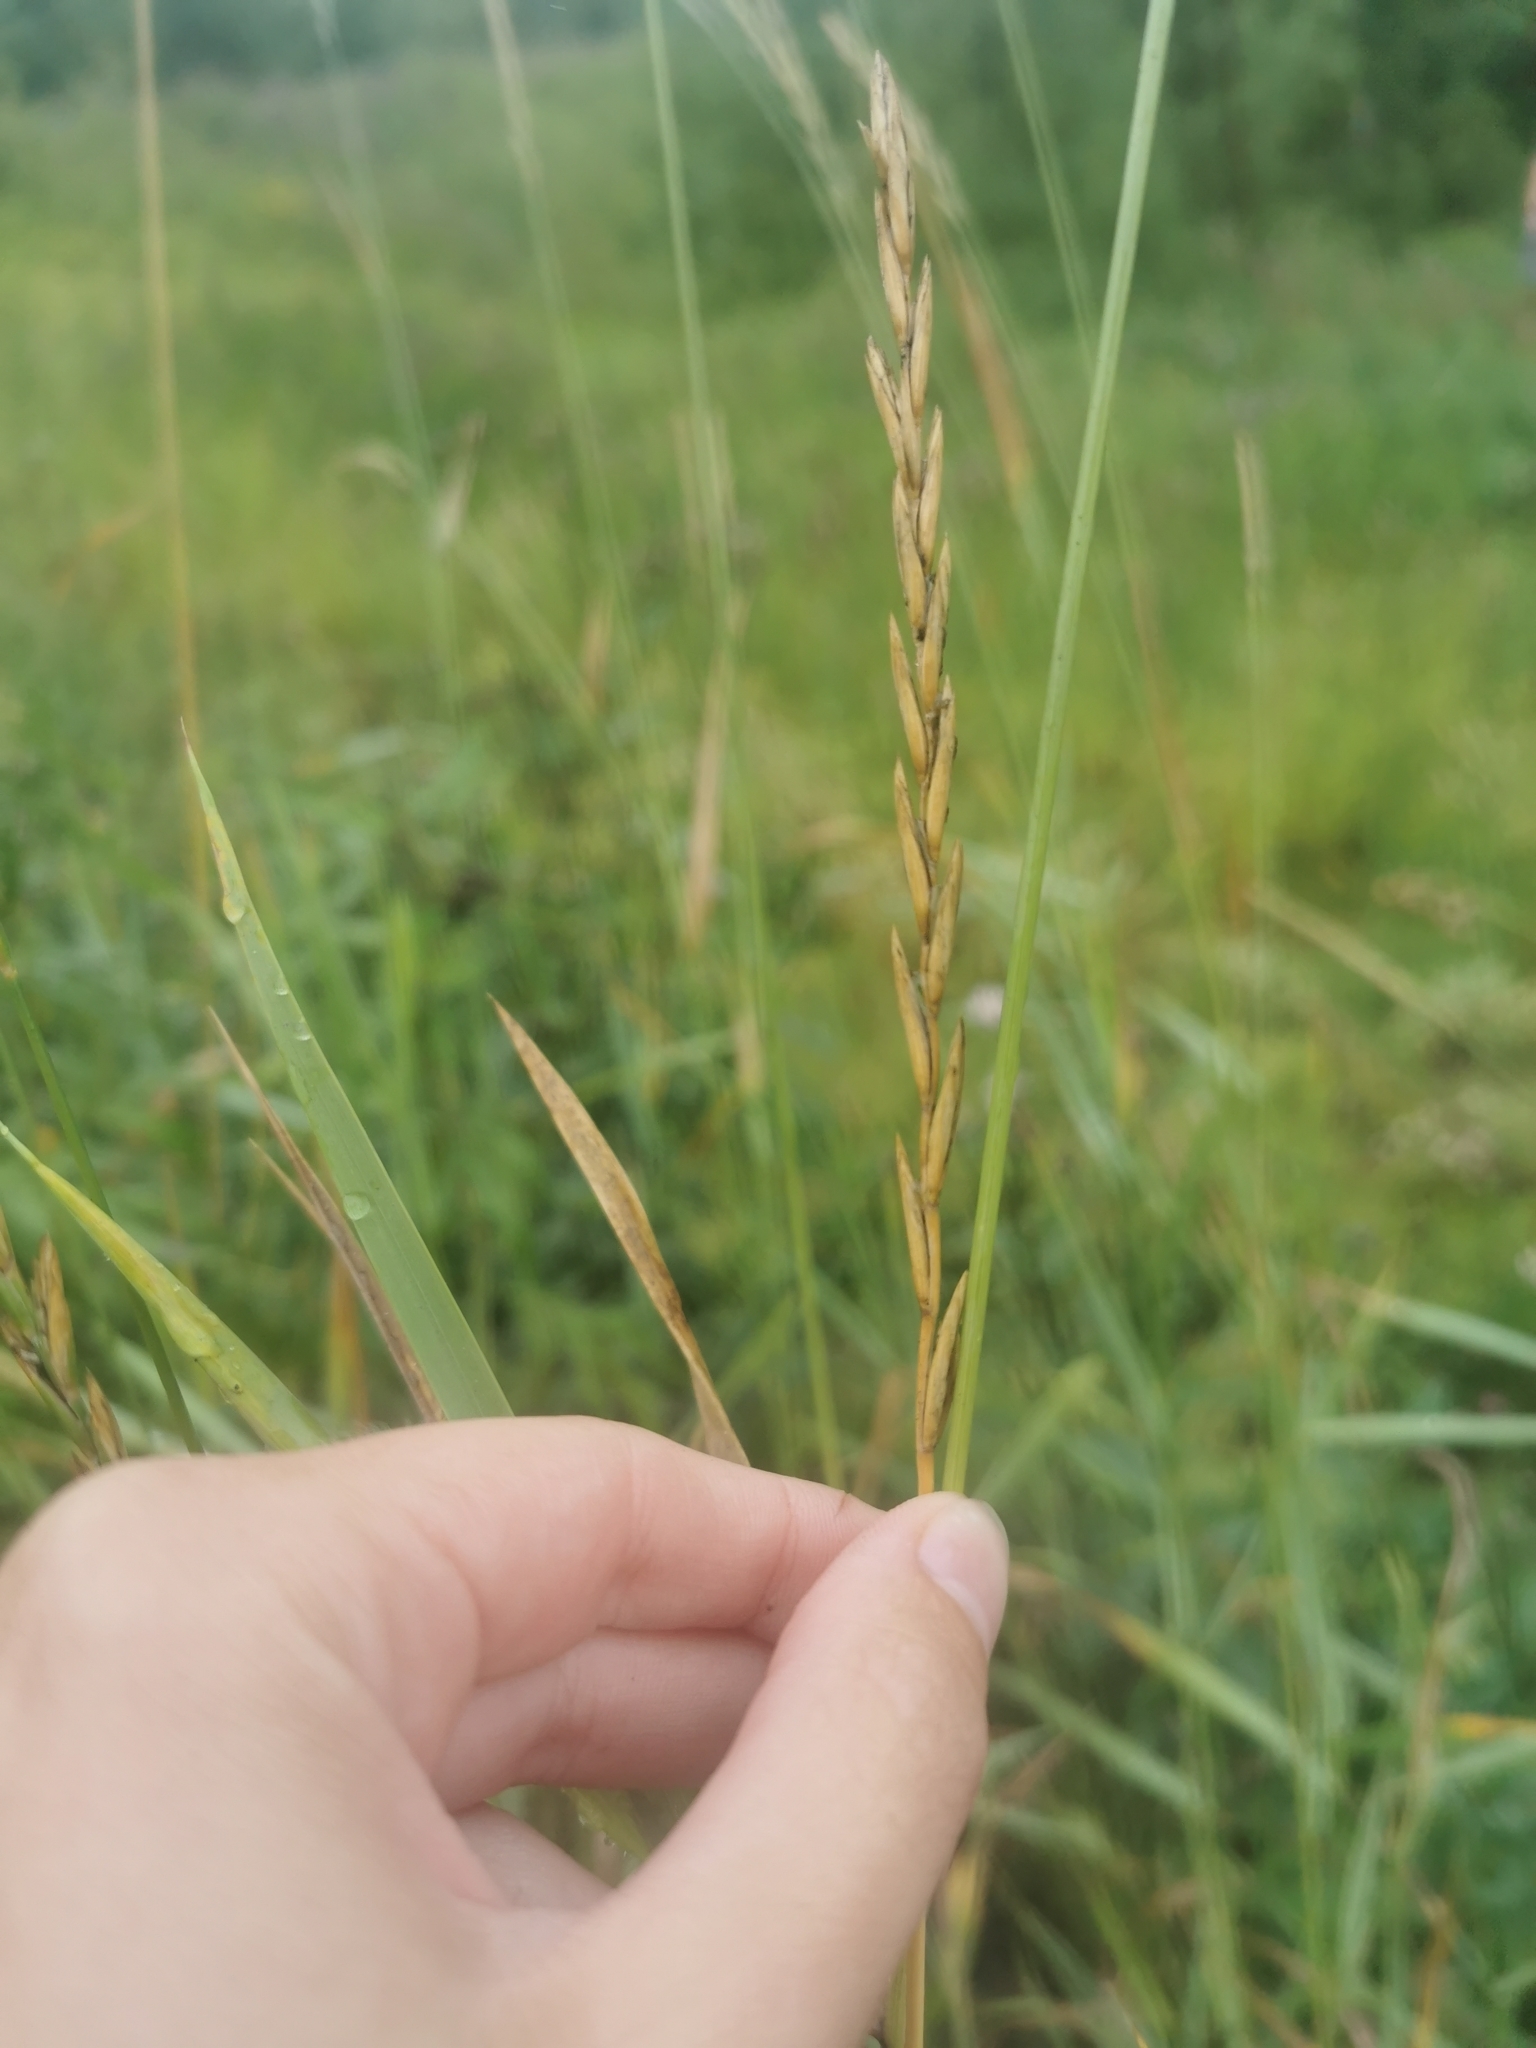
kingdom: Plantae
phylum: Tracheophyta
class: Liliopsida
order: Poales
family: Poaceae
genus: Elymus
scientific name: Elymus repens
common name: Quackgrass
